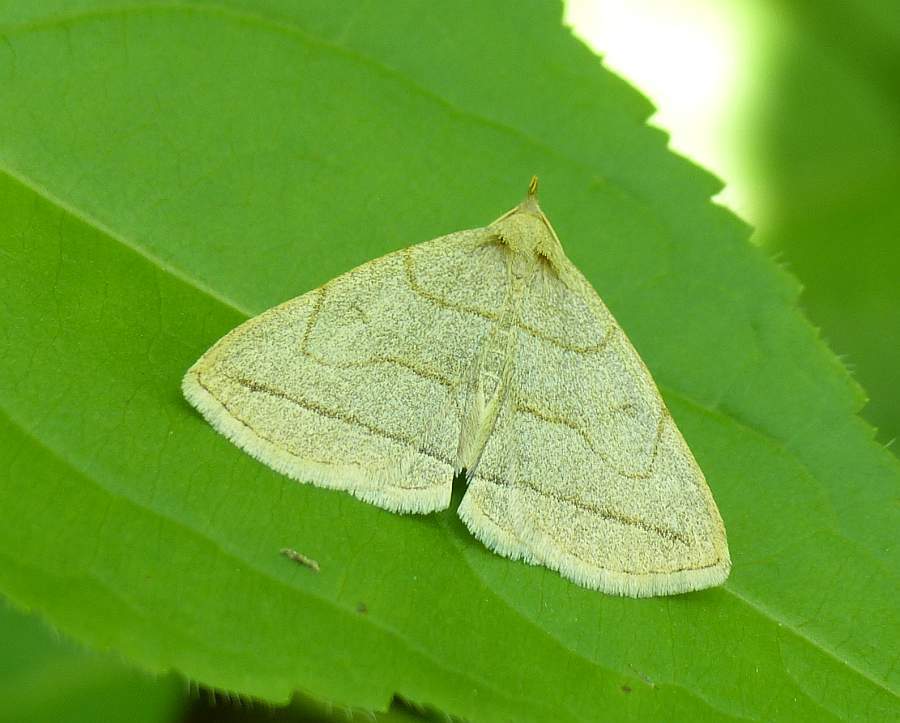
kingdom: Animalia
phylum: Arthropoda
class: Insecta
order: Lepidoptera
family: Erebidae
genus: Zanclognatha
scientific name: Zanclognatha pedipilalis
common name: Grayish fan-foot
